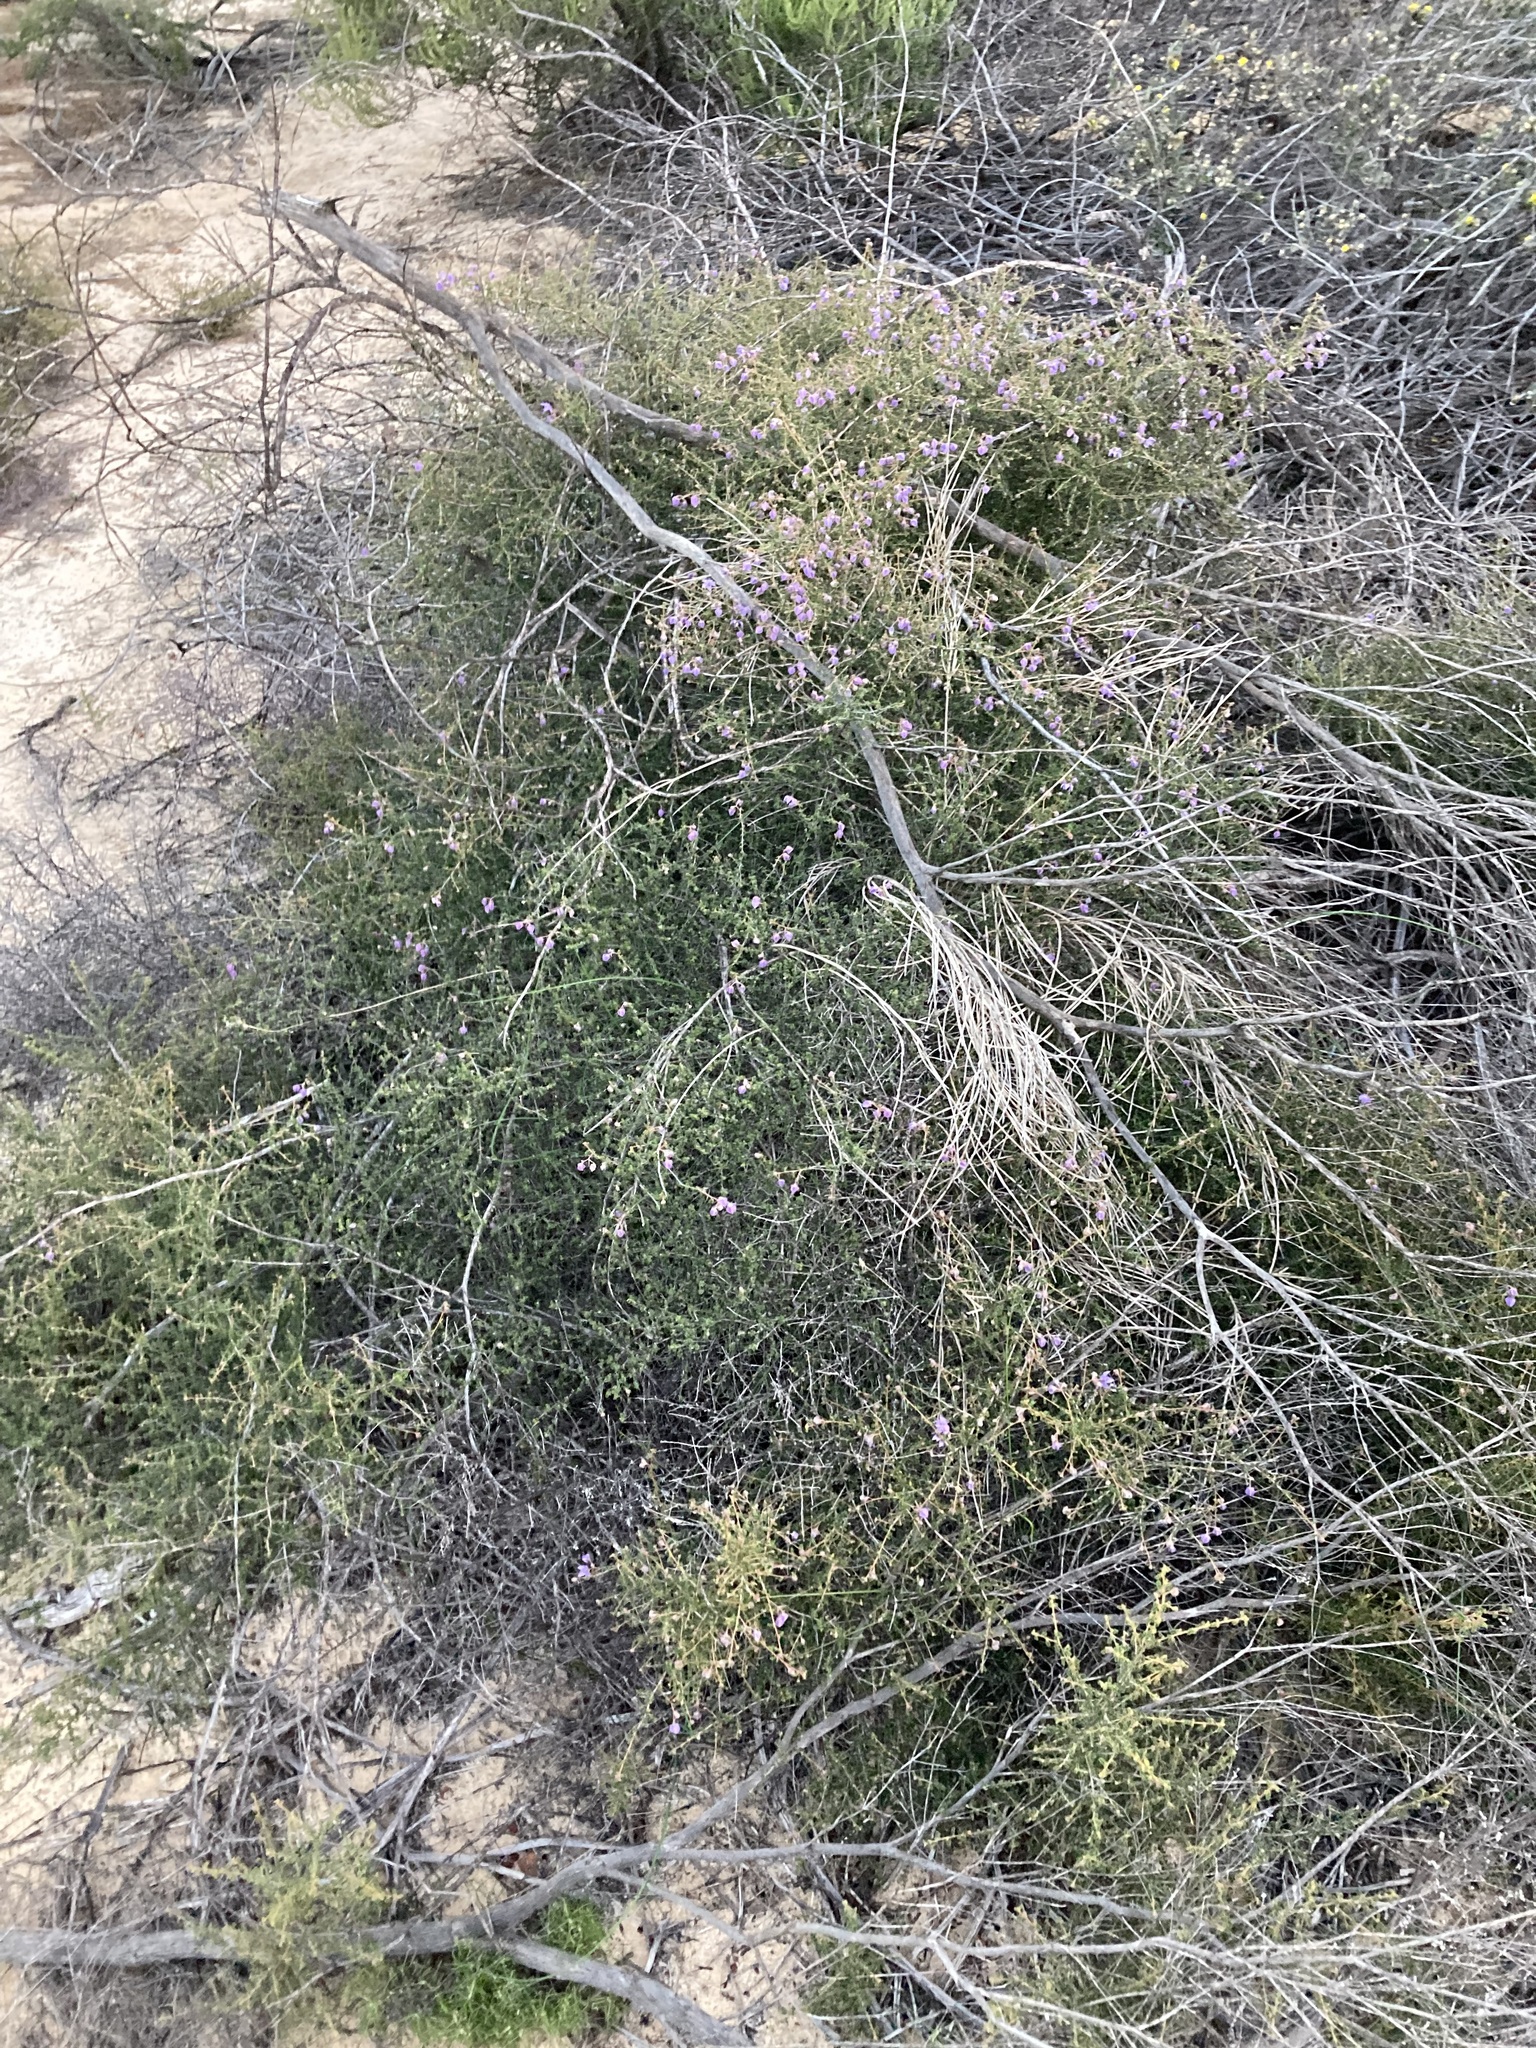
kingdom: Plantae
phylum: Tracheophyta
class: Magnoliopsida
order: Malvales
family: Malvaceae
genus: Seringia
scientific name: Seringia saxatilis
